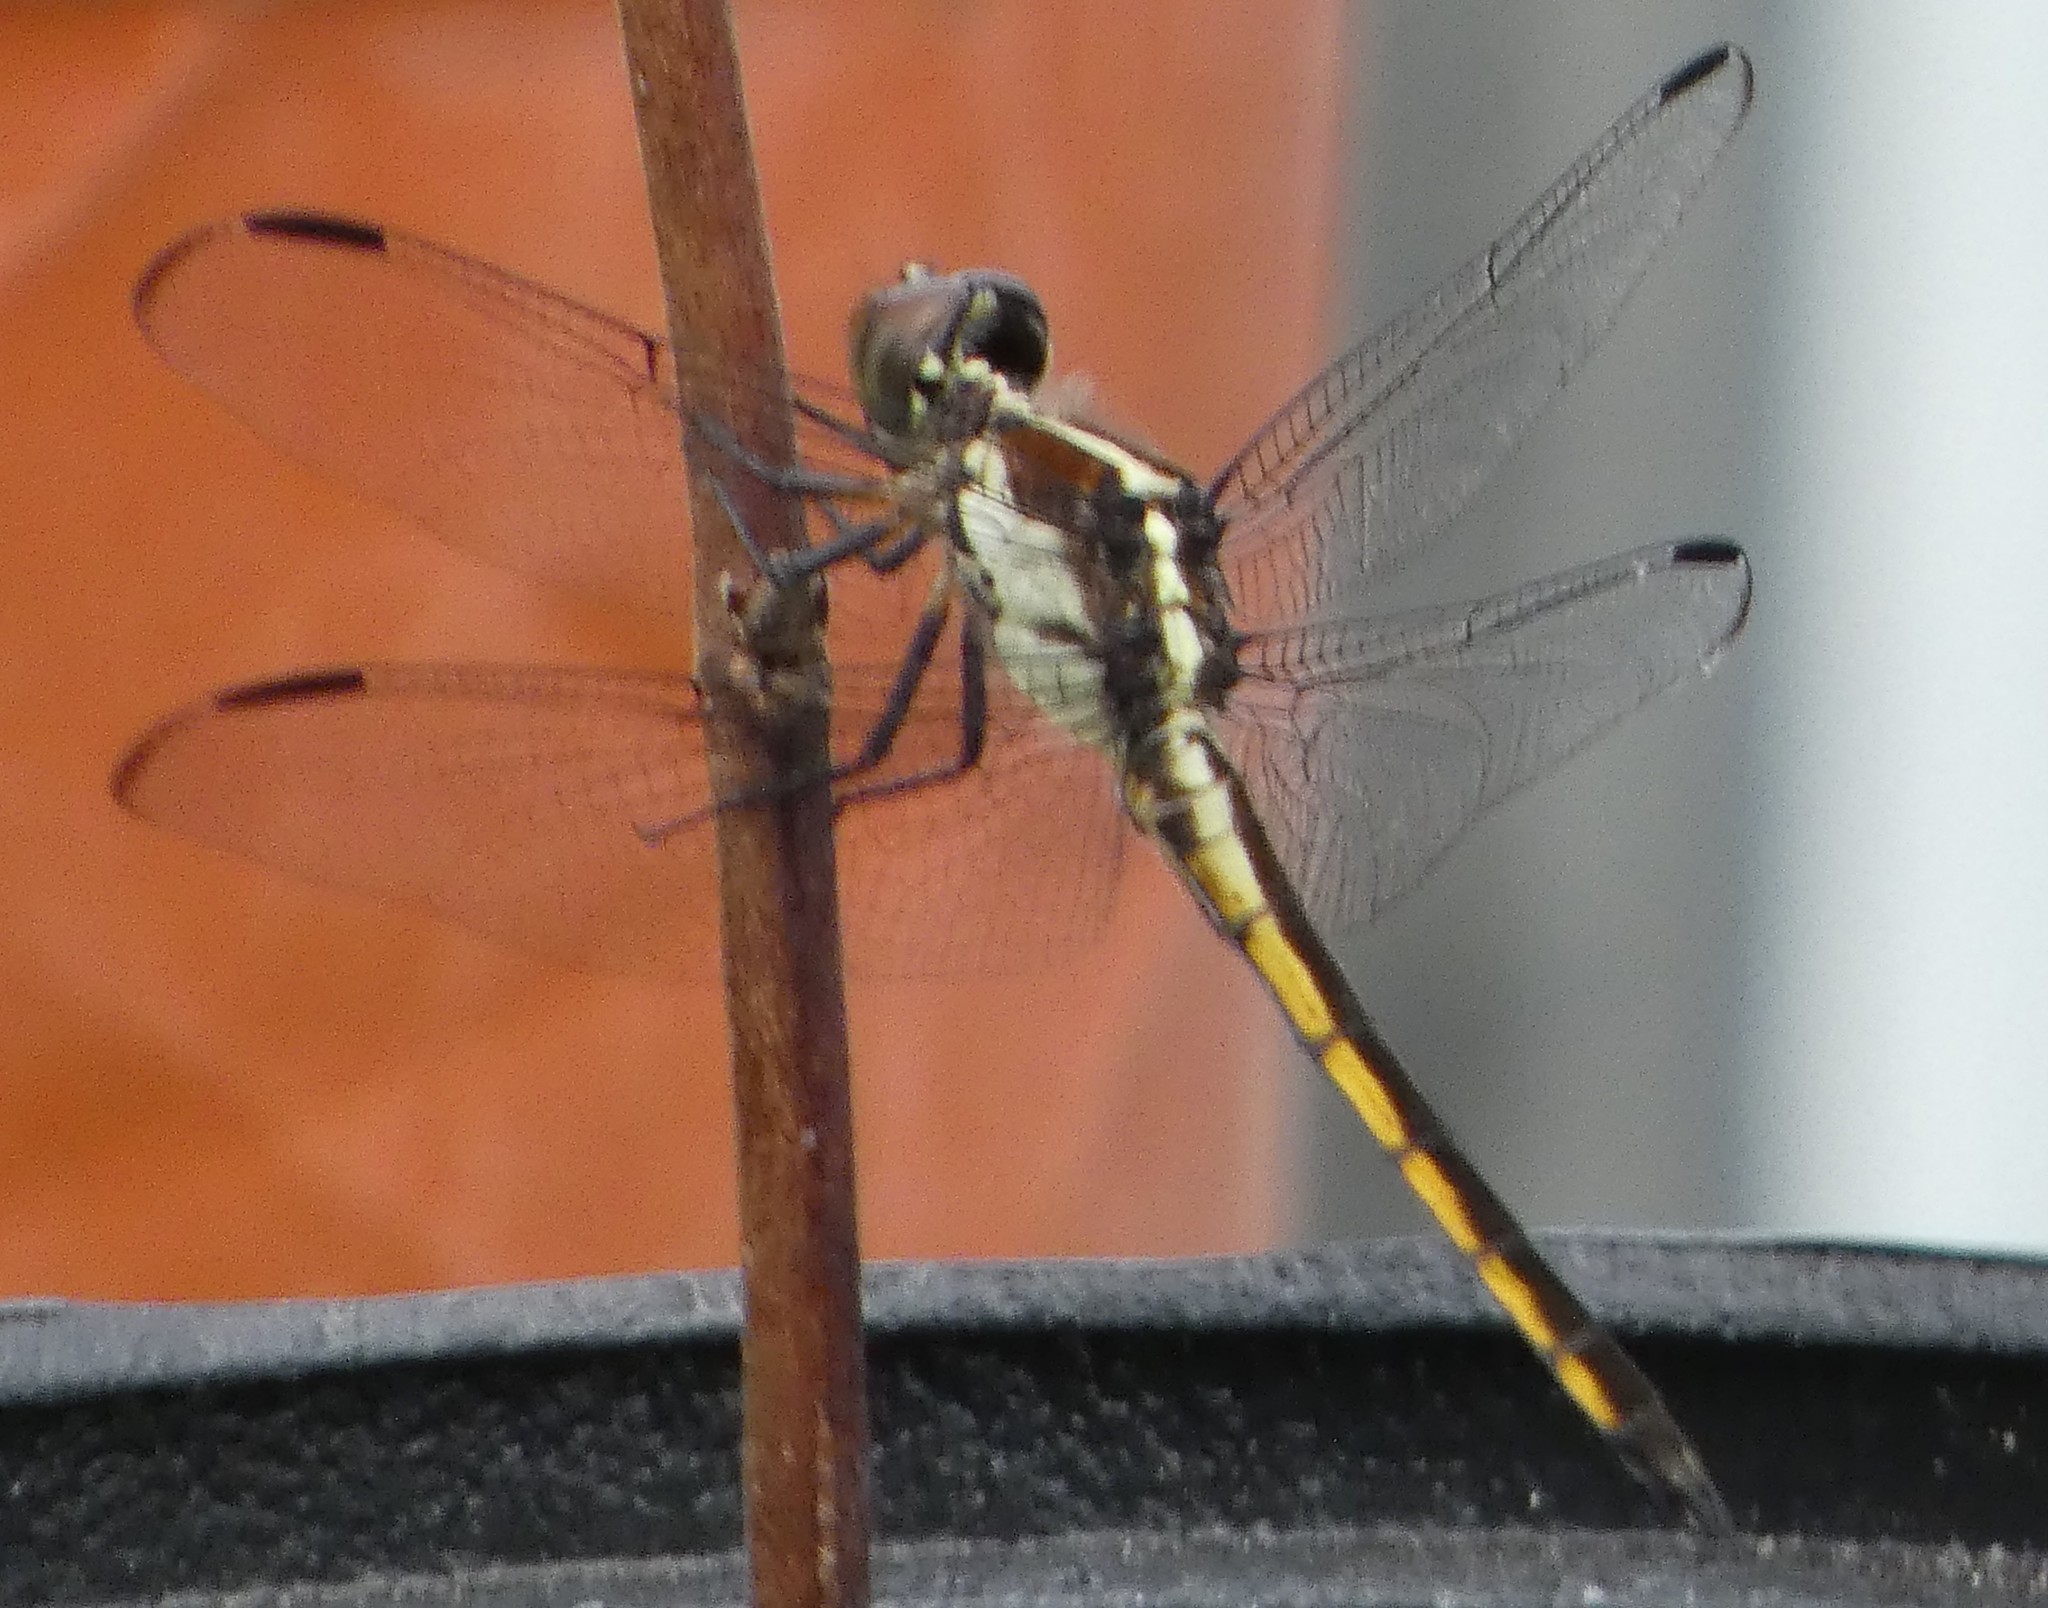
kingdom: Animalia
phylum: Arthropoda
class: Insecta
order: Odonata
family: Libellulidae
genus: Libellula
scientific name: Libellula incesta
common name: Slaty skimmer
